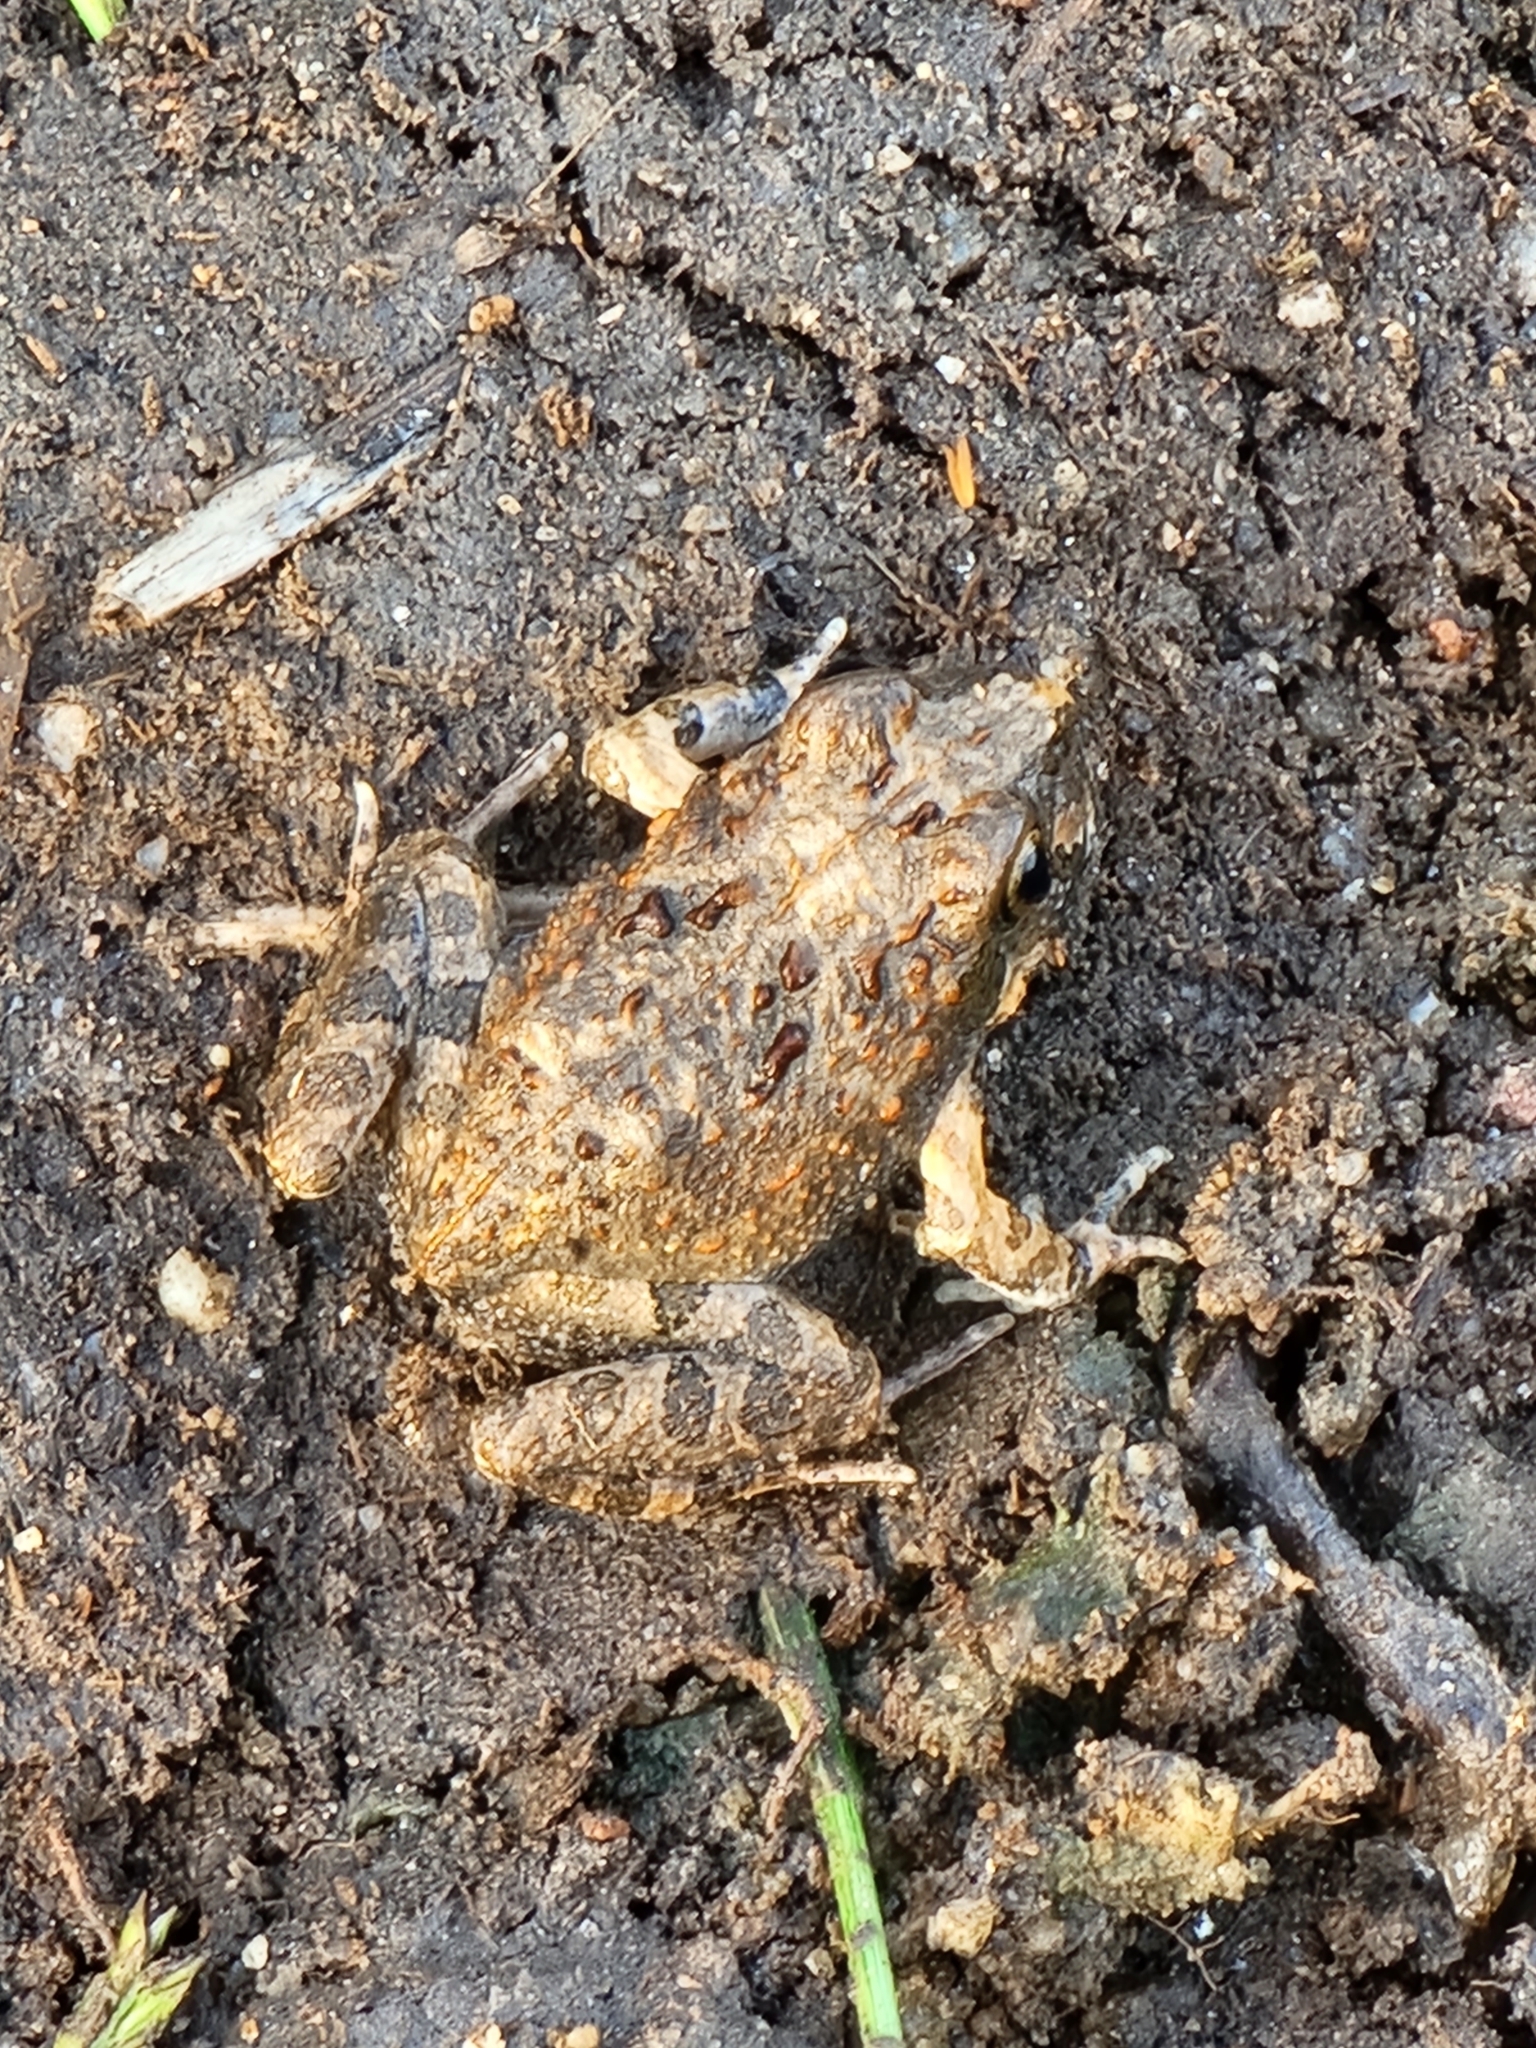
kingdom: Animalia
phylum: Chordata
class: Amphibia
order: Anura
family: Limnodynastidae
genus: Platyplectrum
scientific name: Platyplectrum ornatum
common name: Ornate burrowing frog
